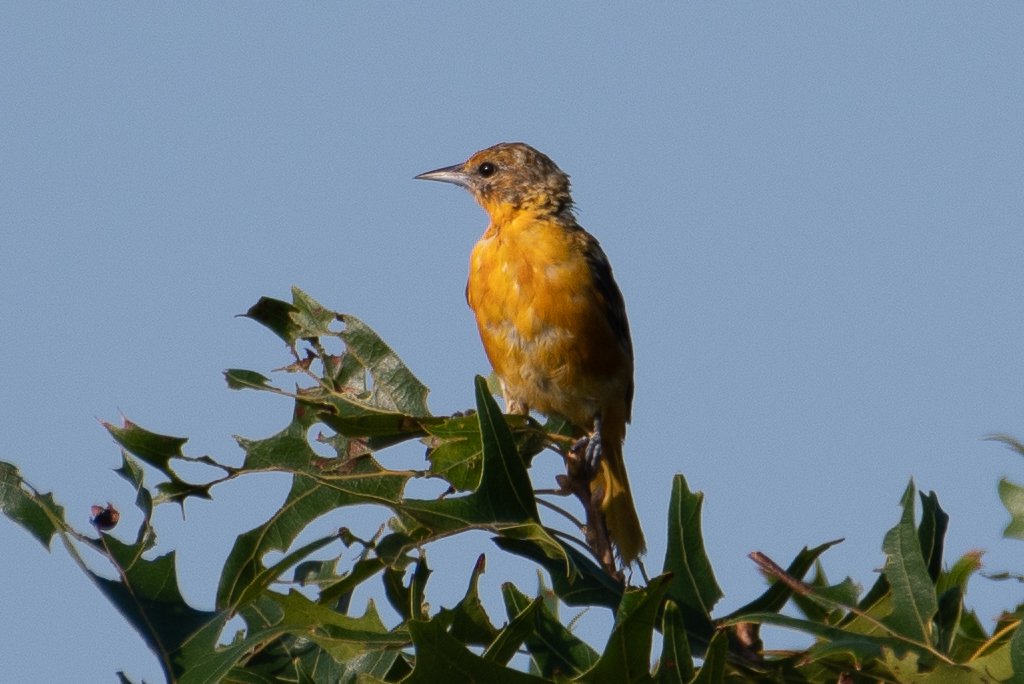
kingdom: Animalia
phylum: Chordata
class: Aves
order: Passeriformes
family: Icteridae
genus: Icterus
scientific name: Icterus galbula
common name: Baltimore oriole
